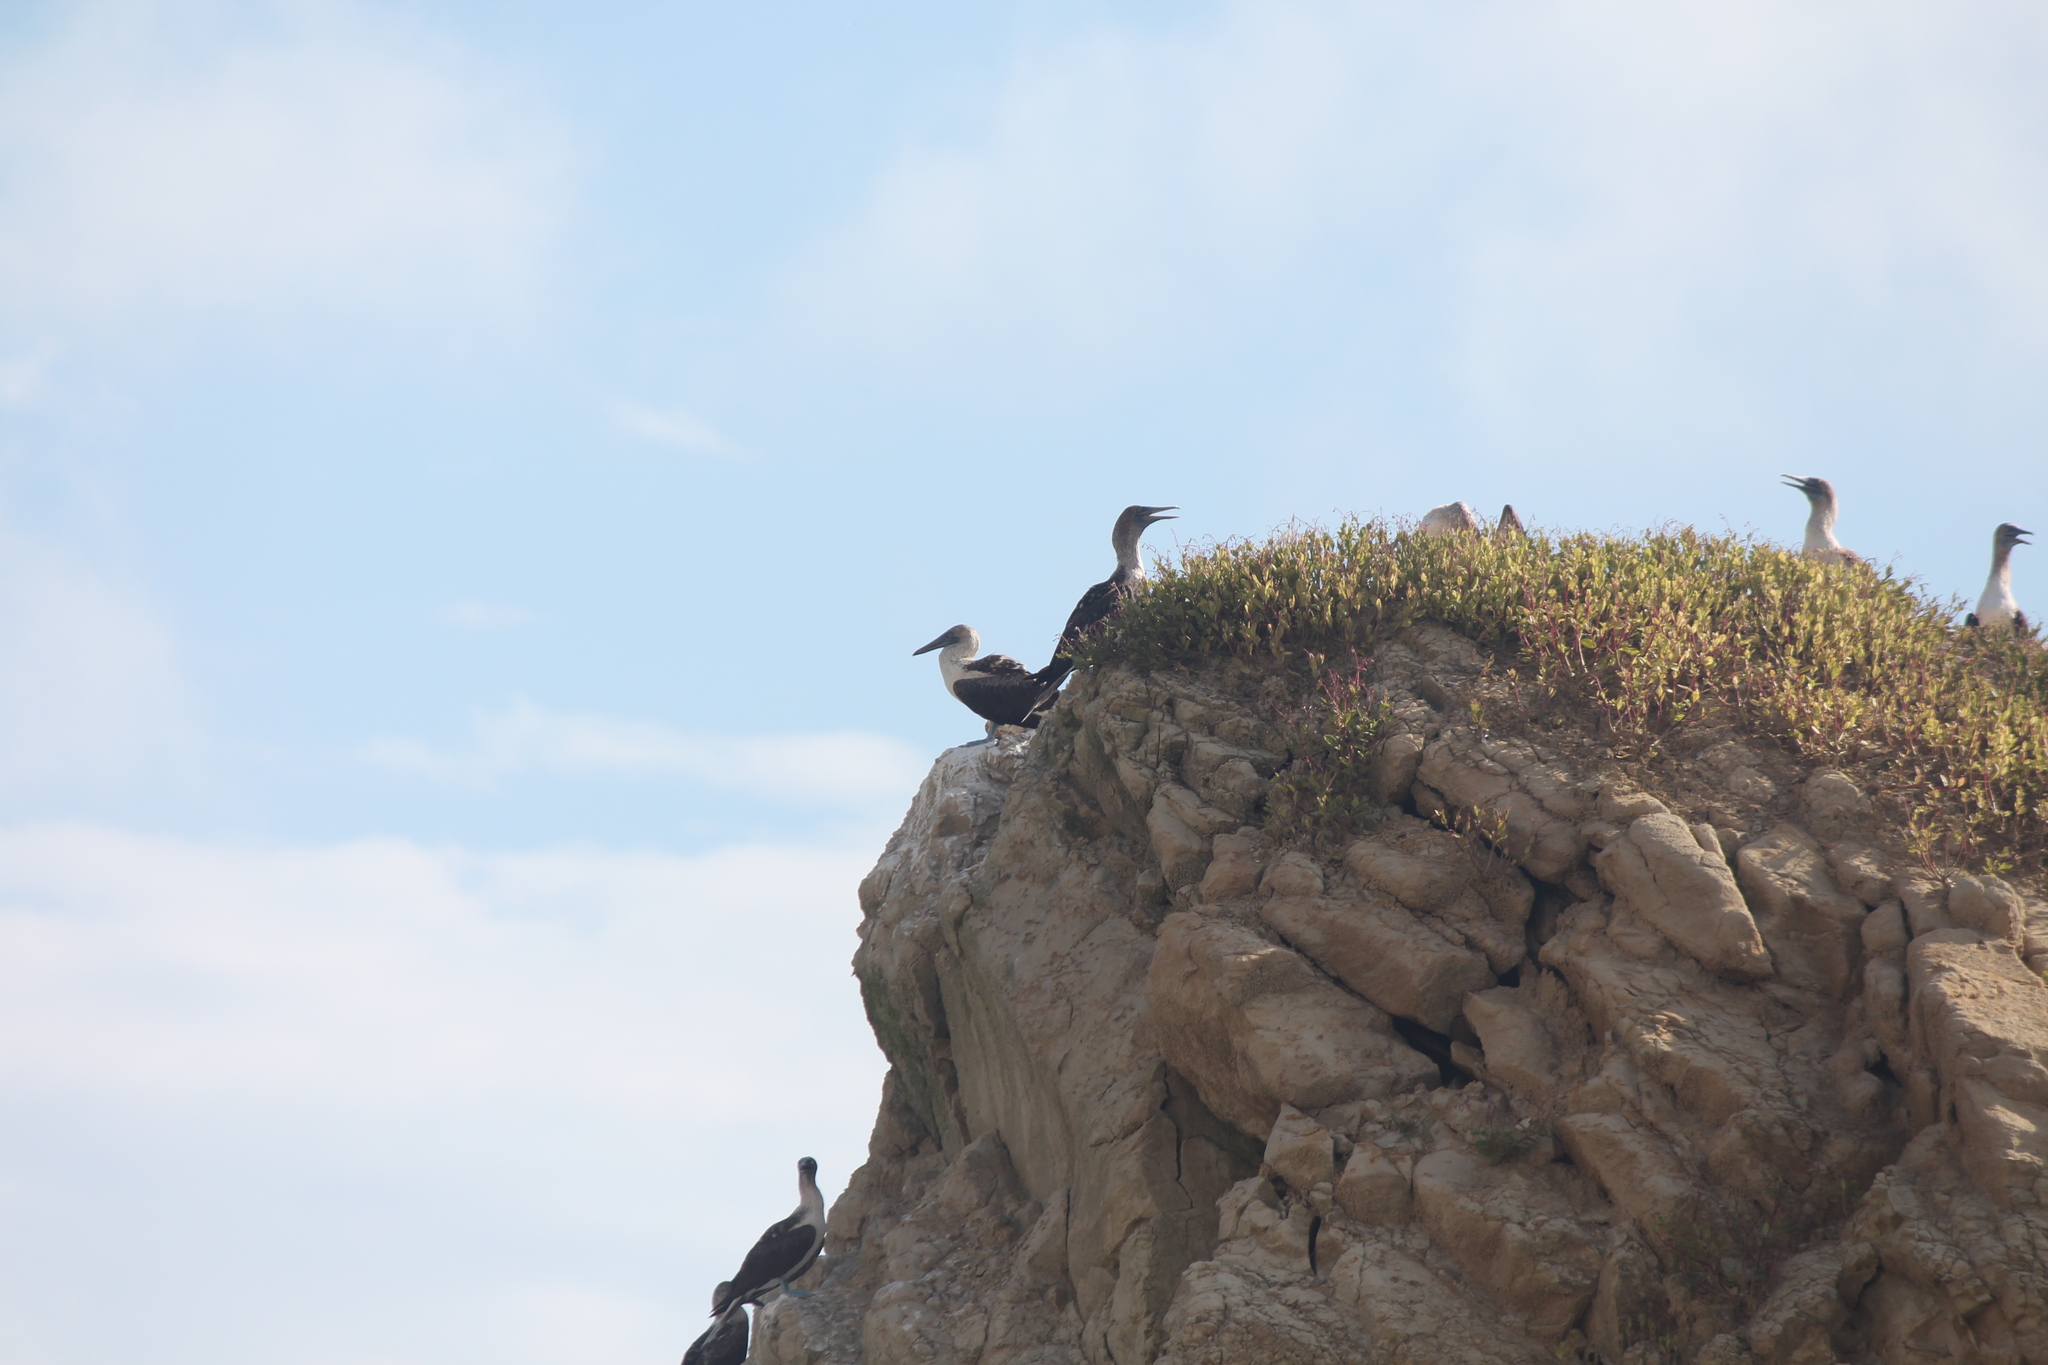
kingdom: Animalia
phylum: Chordata
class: Aves
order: Suliformes
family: Sulidae
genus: Sula
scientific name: Sula nebouxii
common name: Blue-footed booby
